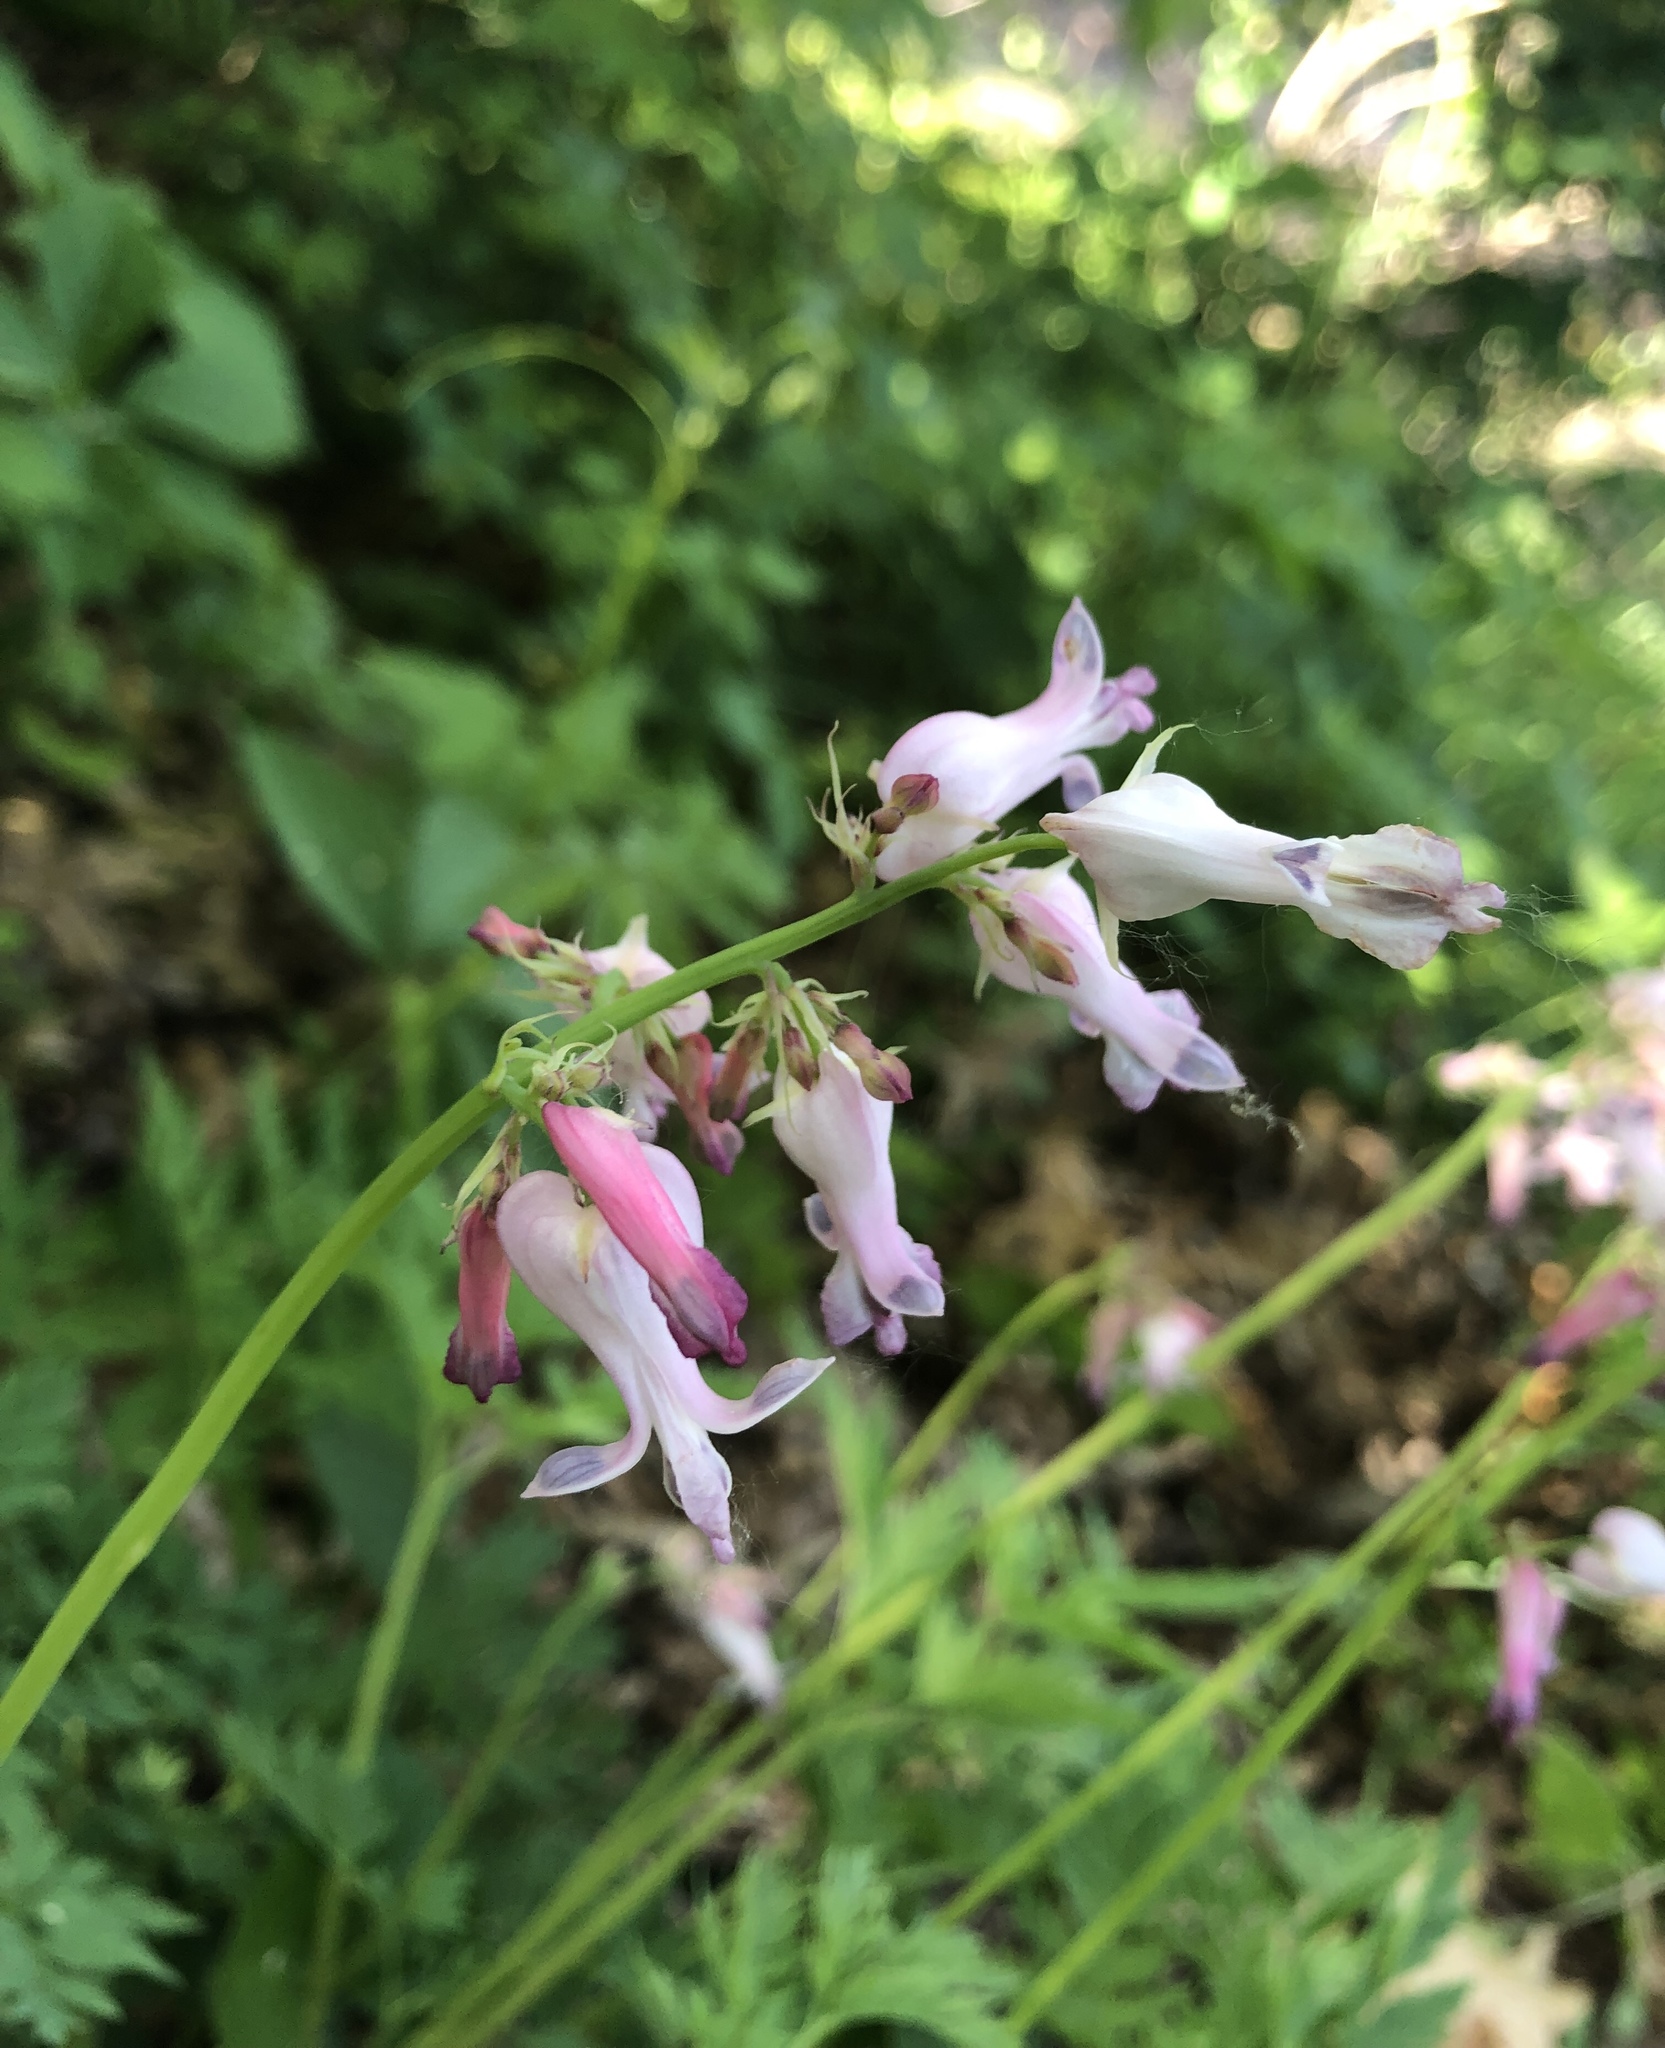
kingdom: Plantae
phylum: Tracheophyta
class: Magnoliopsida
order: Ranunculales
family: Papaveraceae
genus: Dicentra
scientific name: Dicentra eximia
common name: Turkey-corn
